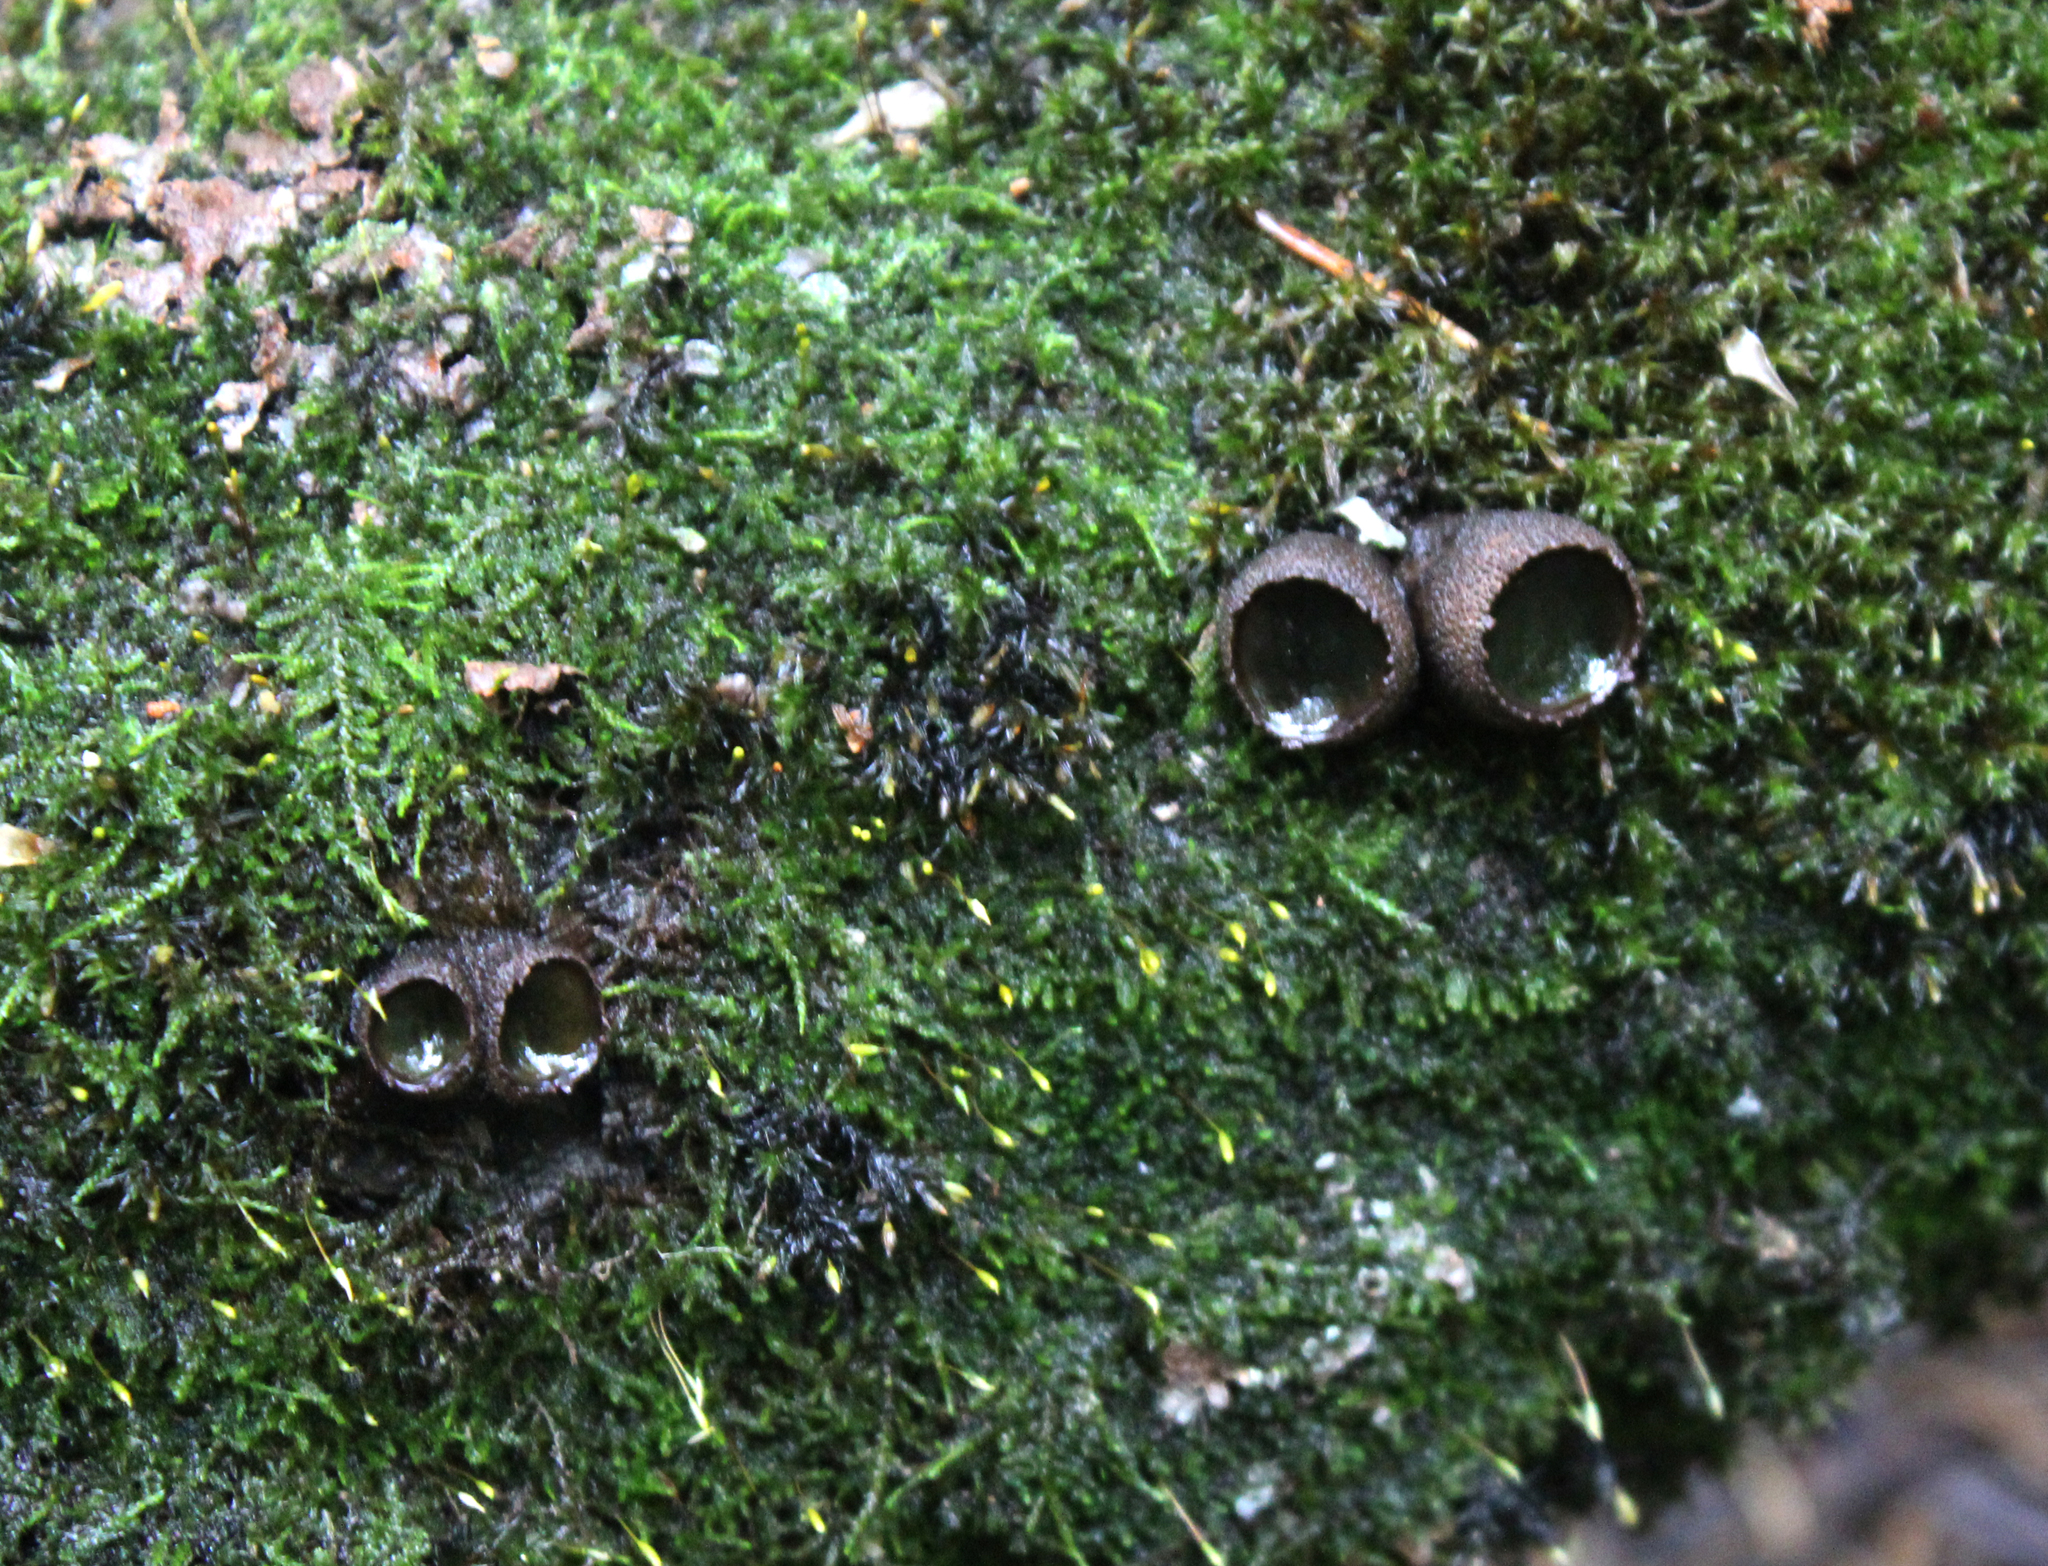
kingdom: Fungi
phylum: Ascomycota
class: Leotiomycetes
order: Phacidiales
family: Phacidiaceae
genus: Bulgaria
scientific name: Bulgaria inquinans
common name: Black bulgar
